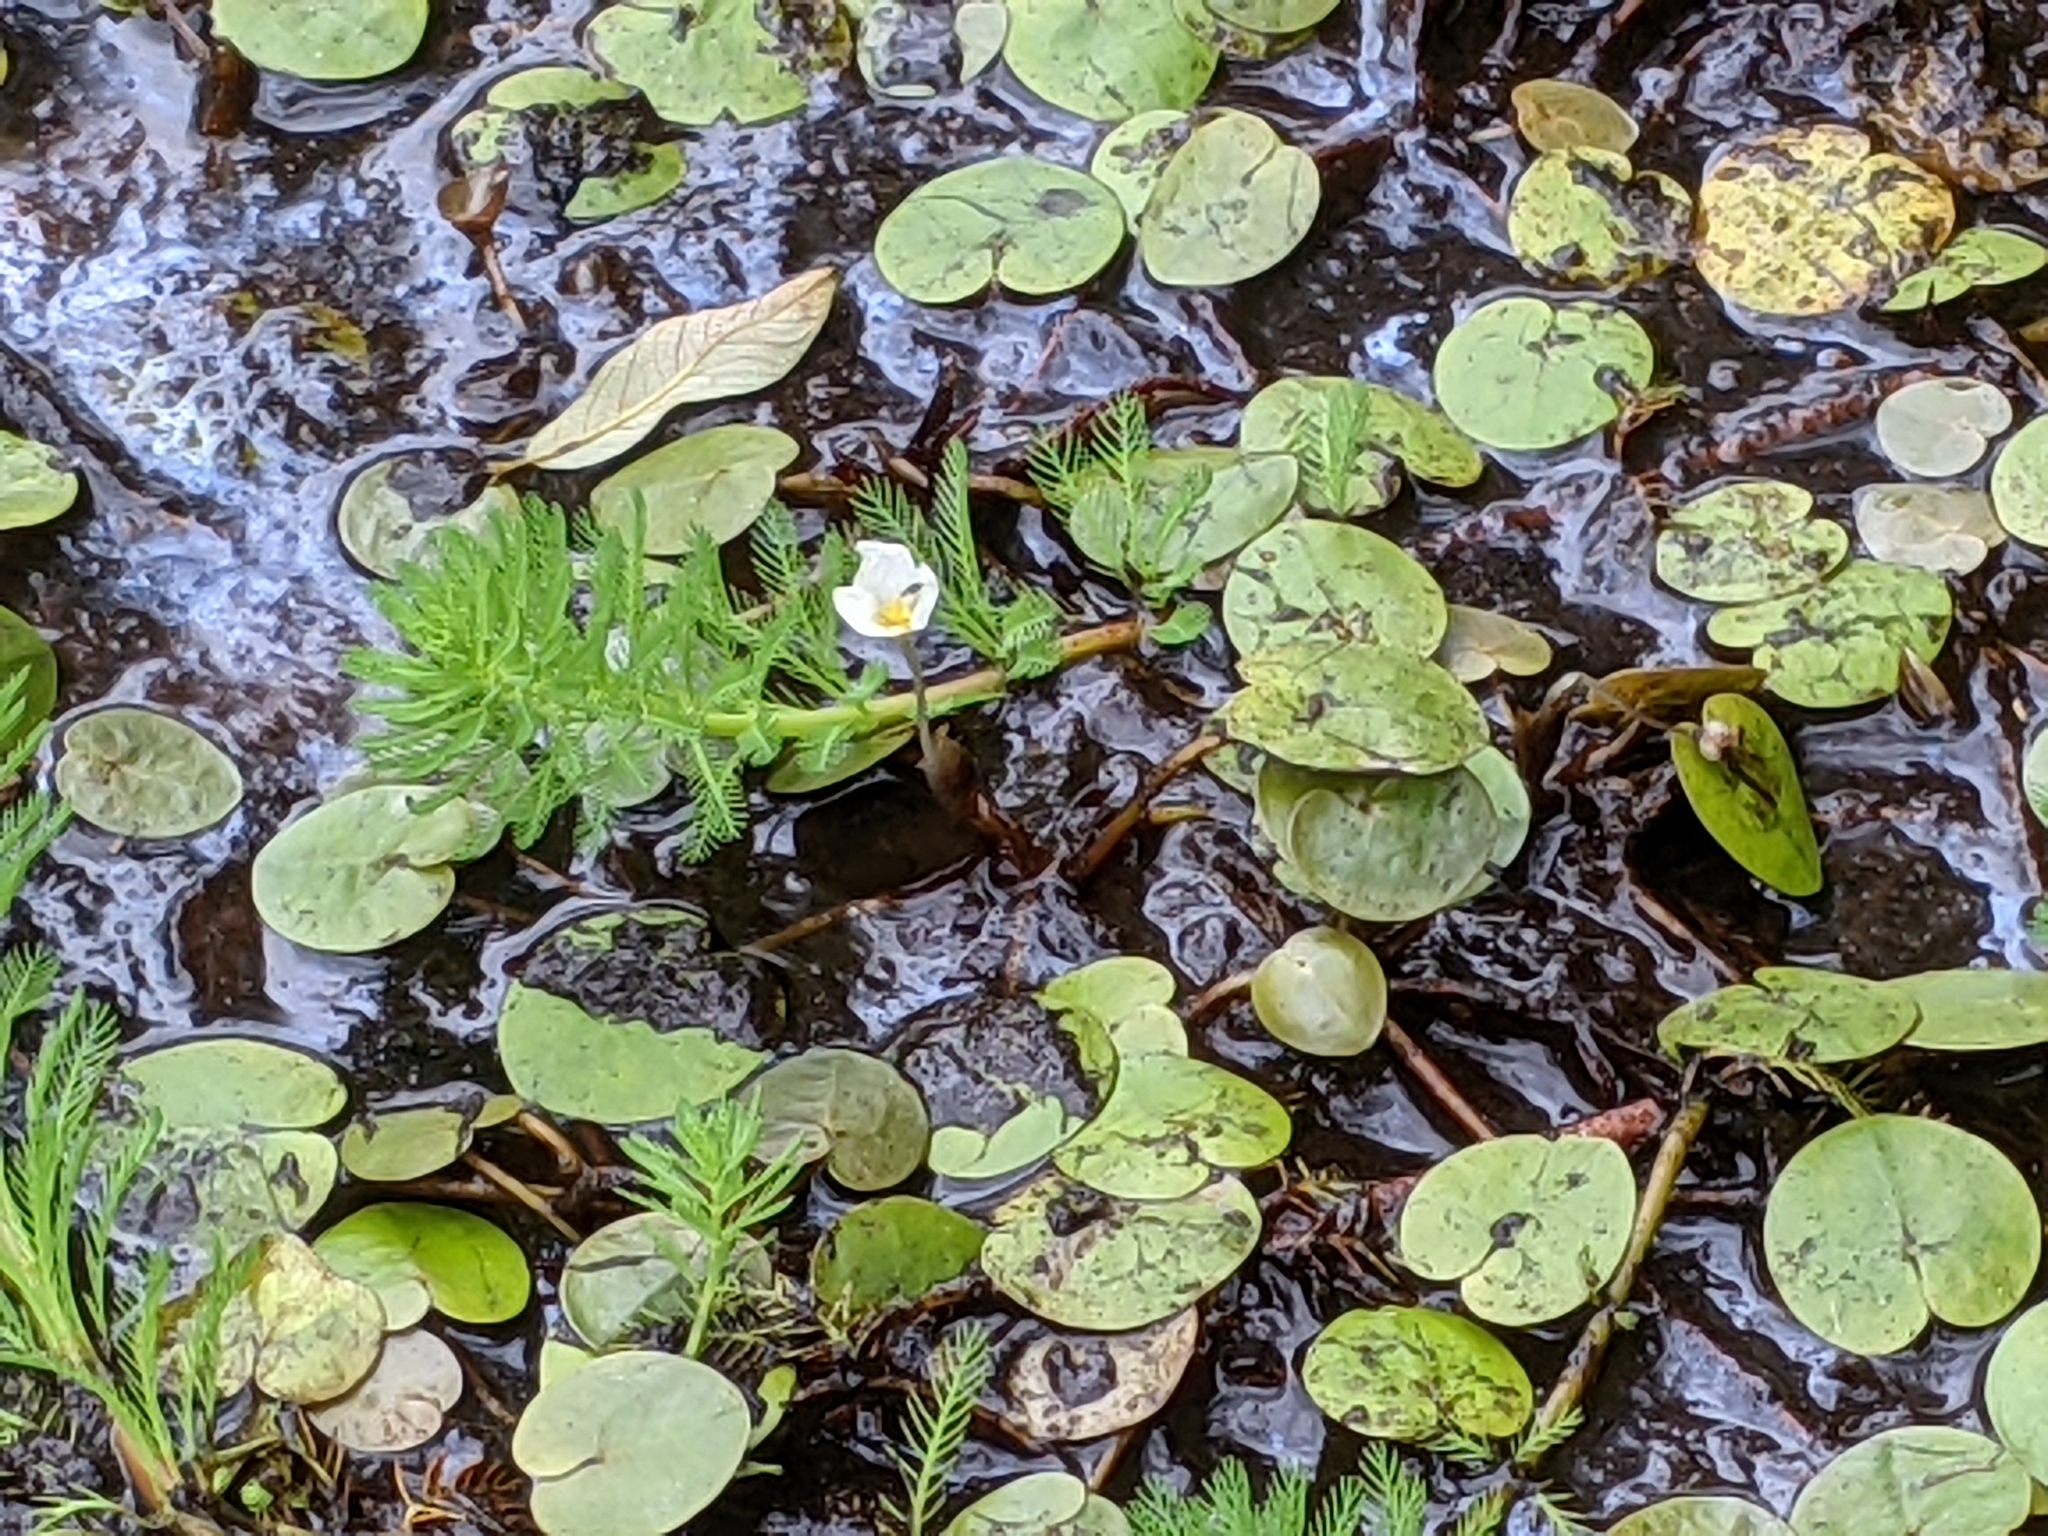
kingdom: Plantae
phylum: Tracheophyta
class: Liliopsida
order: Alismatales
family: Hydrocharitaceae
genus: Hydrocharis
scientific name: Hydrocharis morsus-ranae
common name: Frogbit
